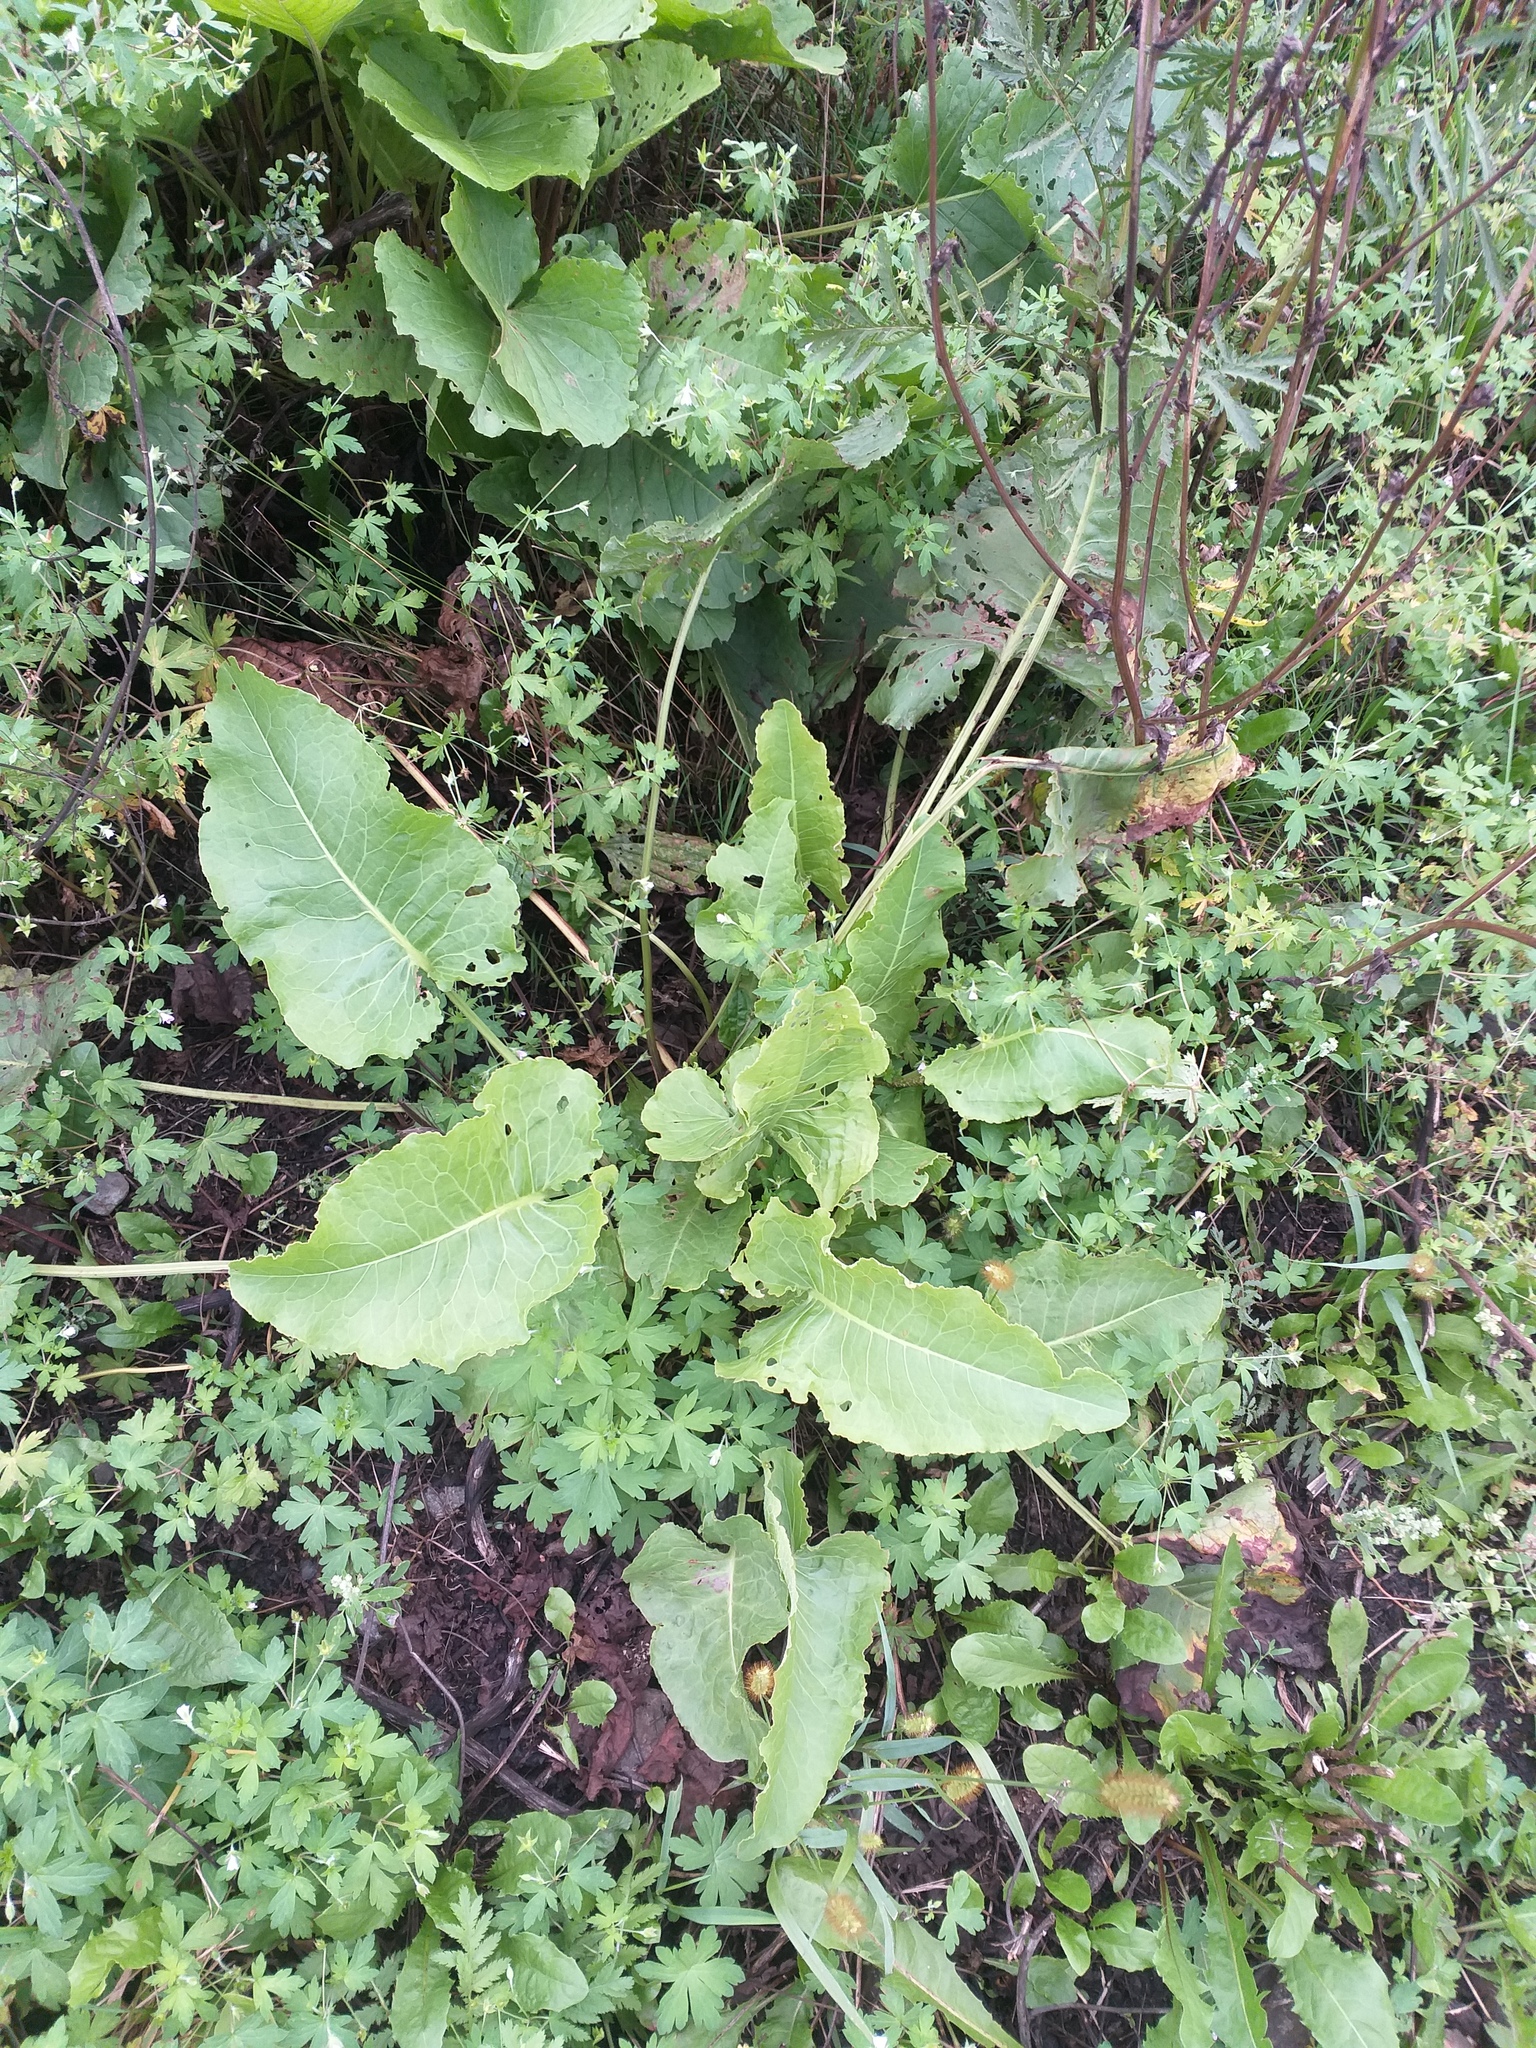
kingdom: Plantae
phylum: Tracheophyta
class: Magnoliopsida
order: Caryophyllales
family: Polygonaceae
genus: Rumex
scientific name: Rumex confertus
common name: Russian dock
